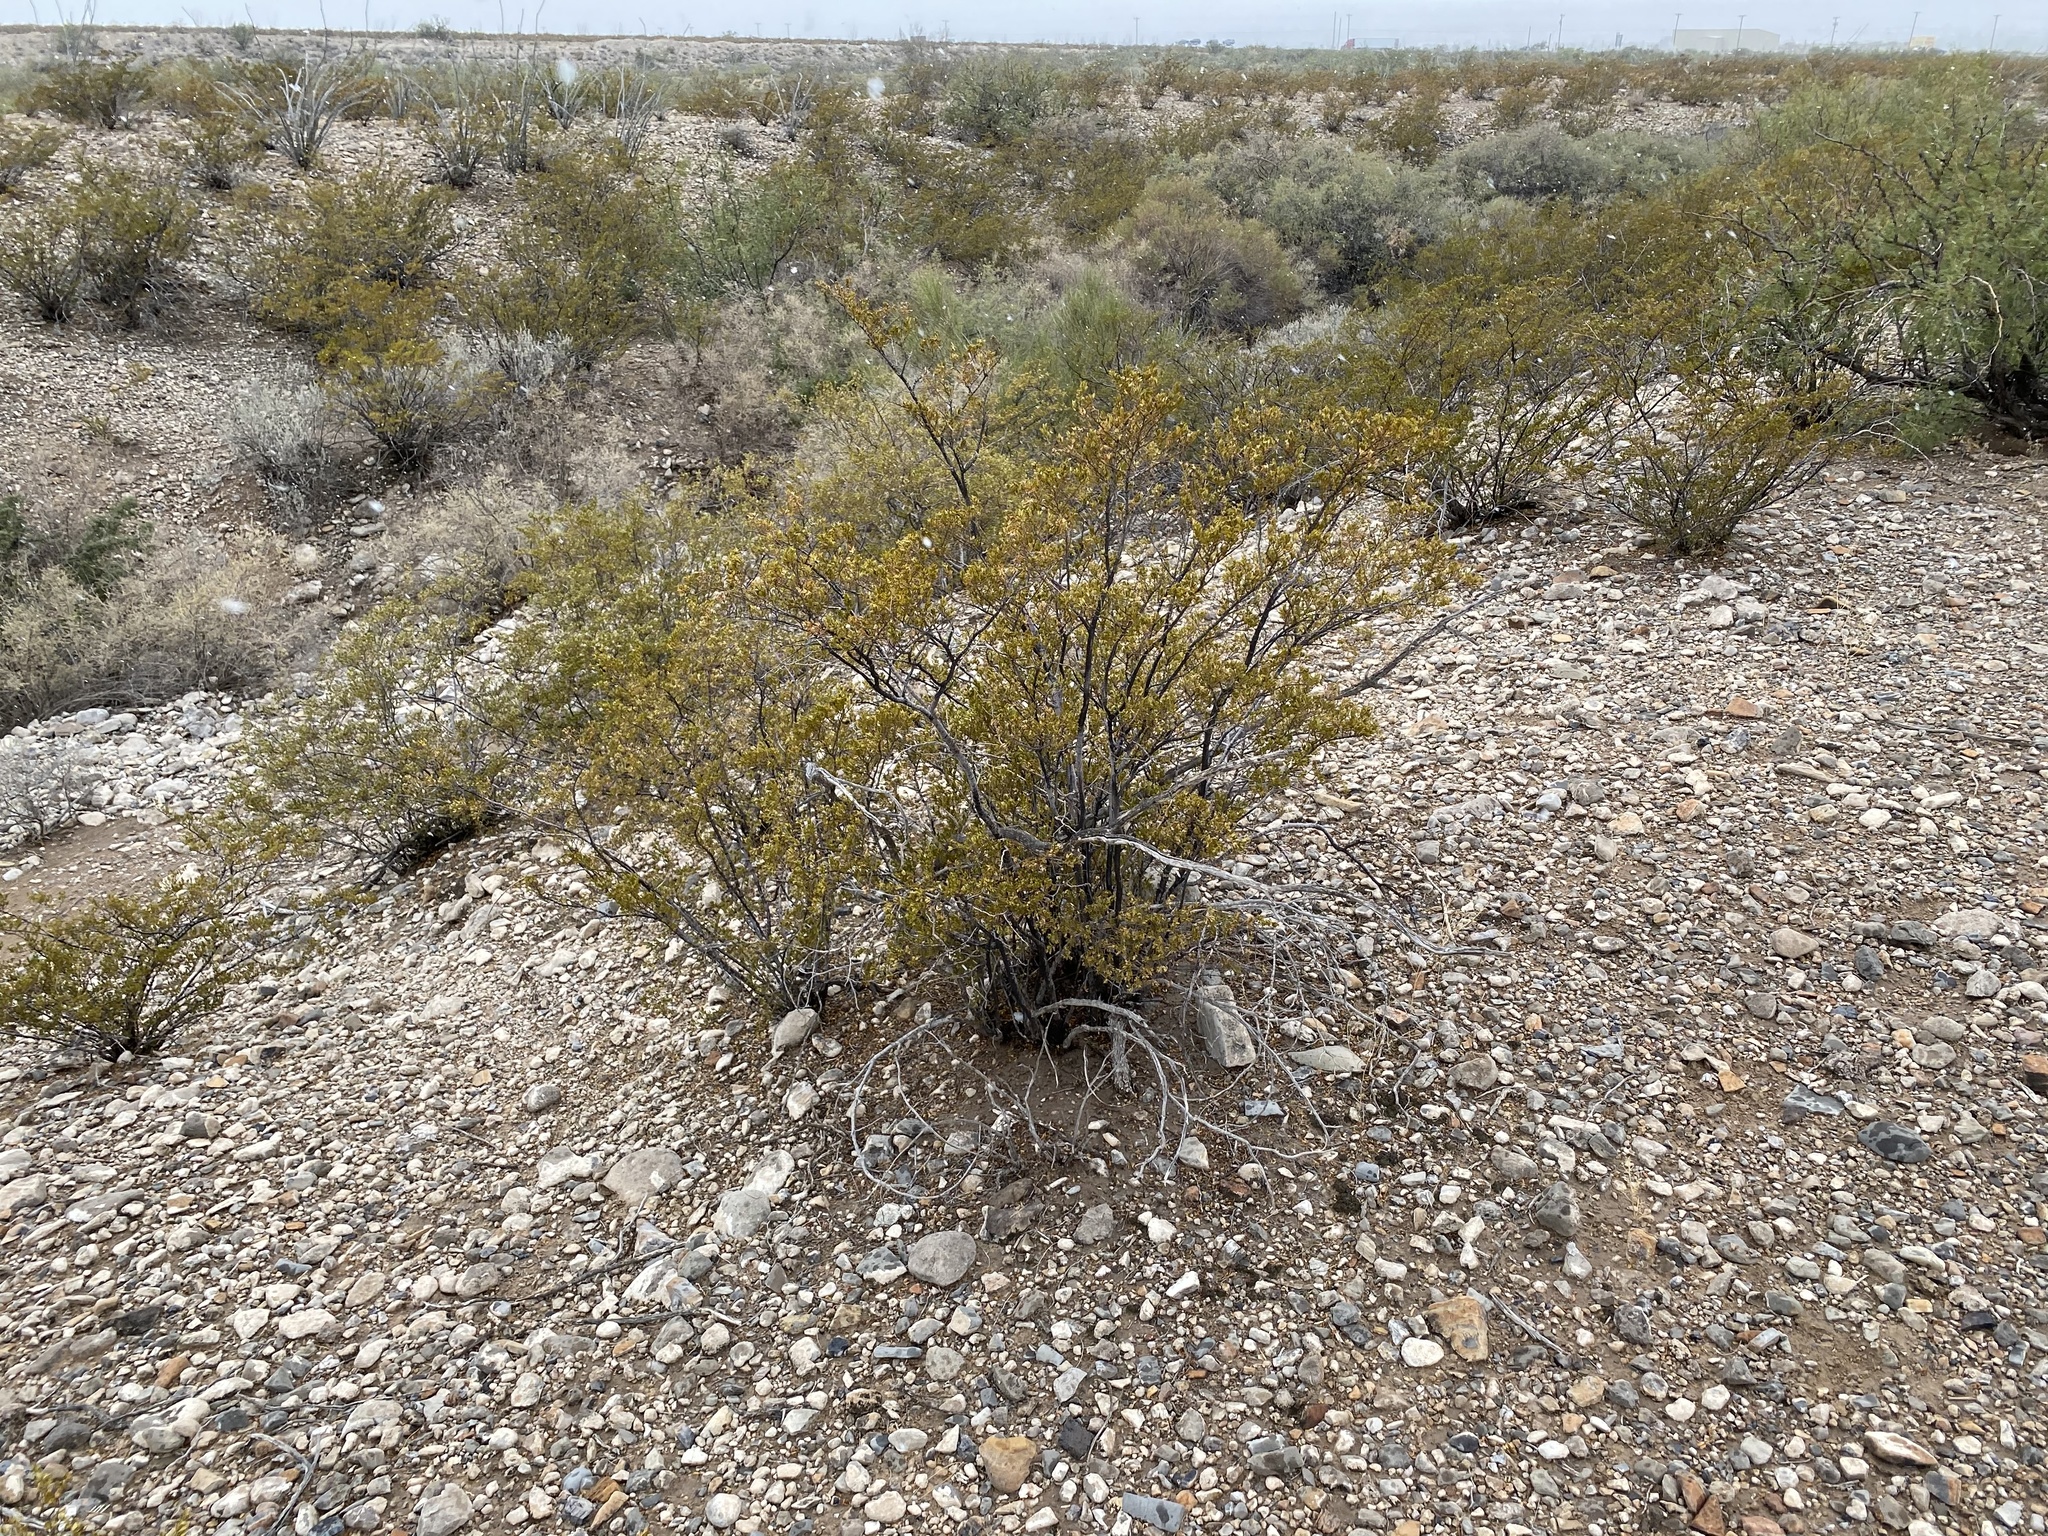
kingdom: Plantae
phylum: Tracheophyta
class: Magnoliopsida
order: Zygophyllales
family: Zygophyllaceae
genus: Larrea
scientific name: Larrea tridentata
